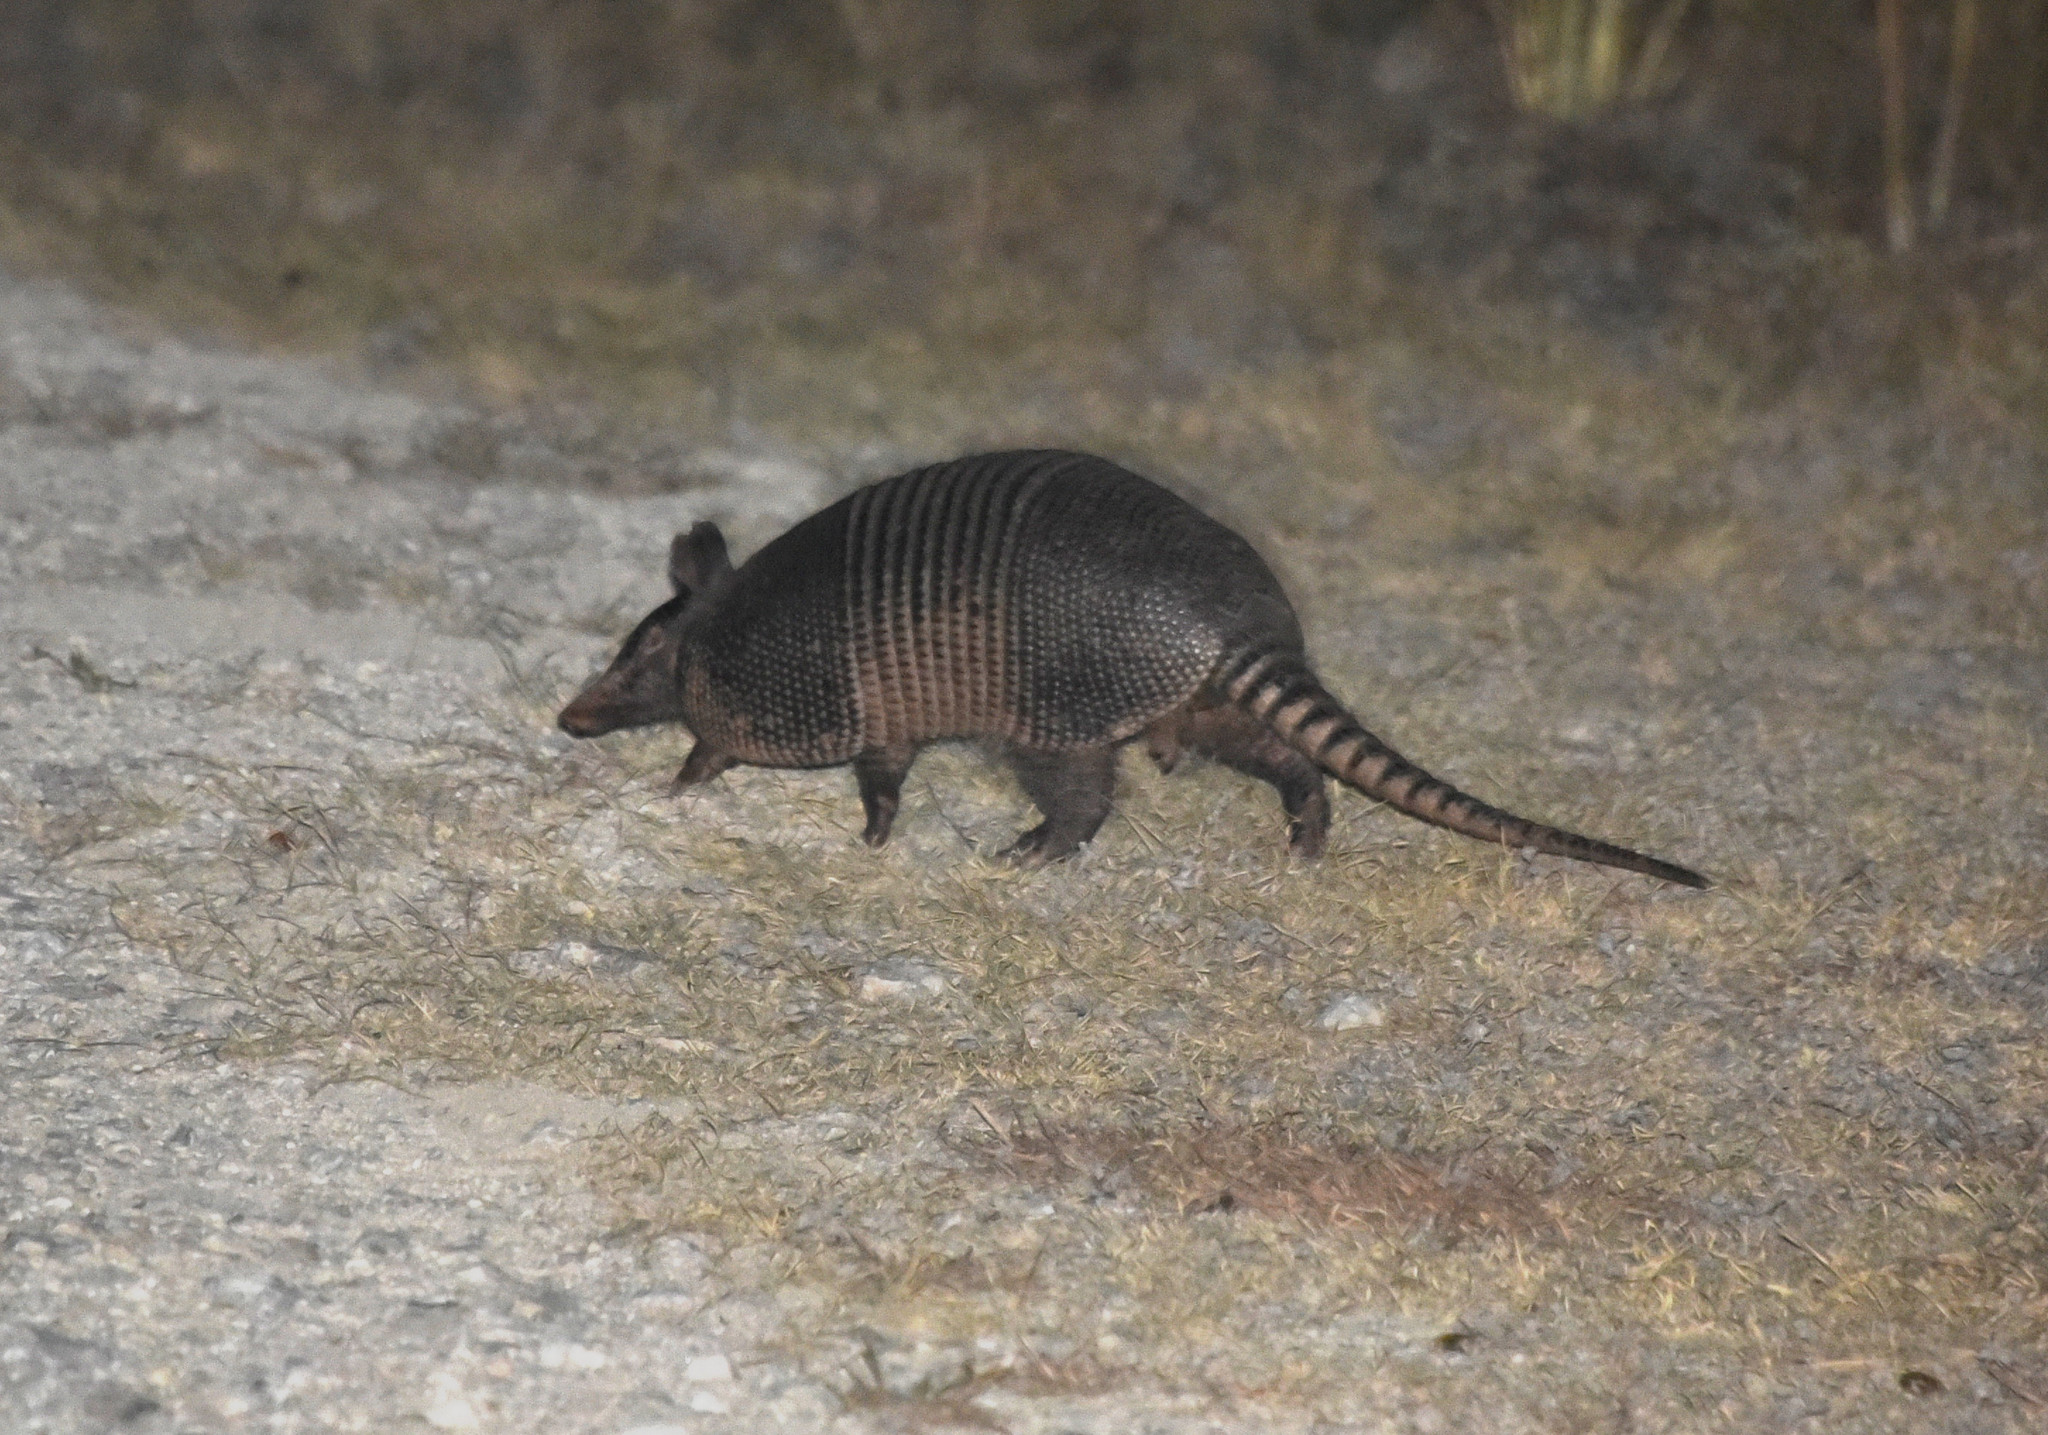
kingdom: Animalia
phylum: Chordata
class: Mammalia
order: Cingulata
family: Dasypodidae
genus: Dasypus
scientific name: Dasypus novemcinctus
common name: Nine-banded armadillo
